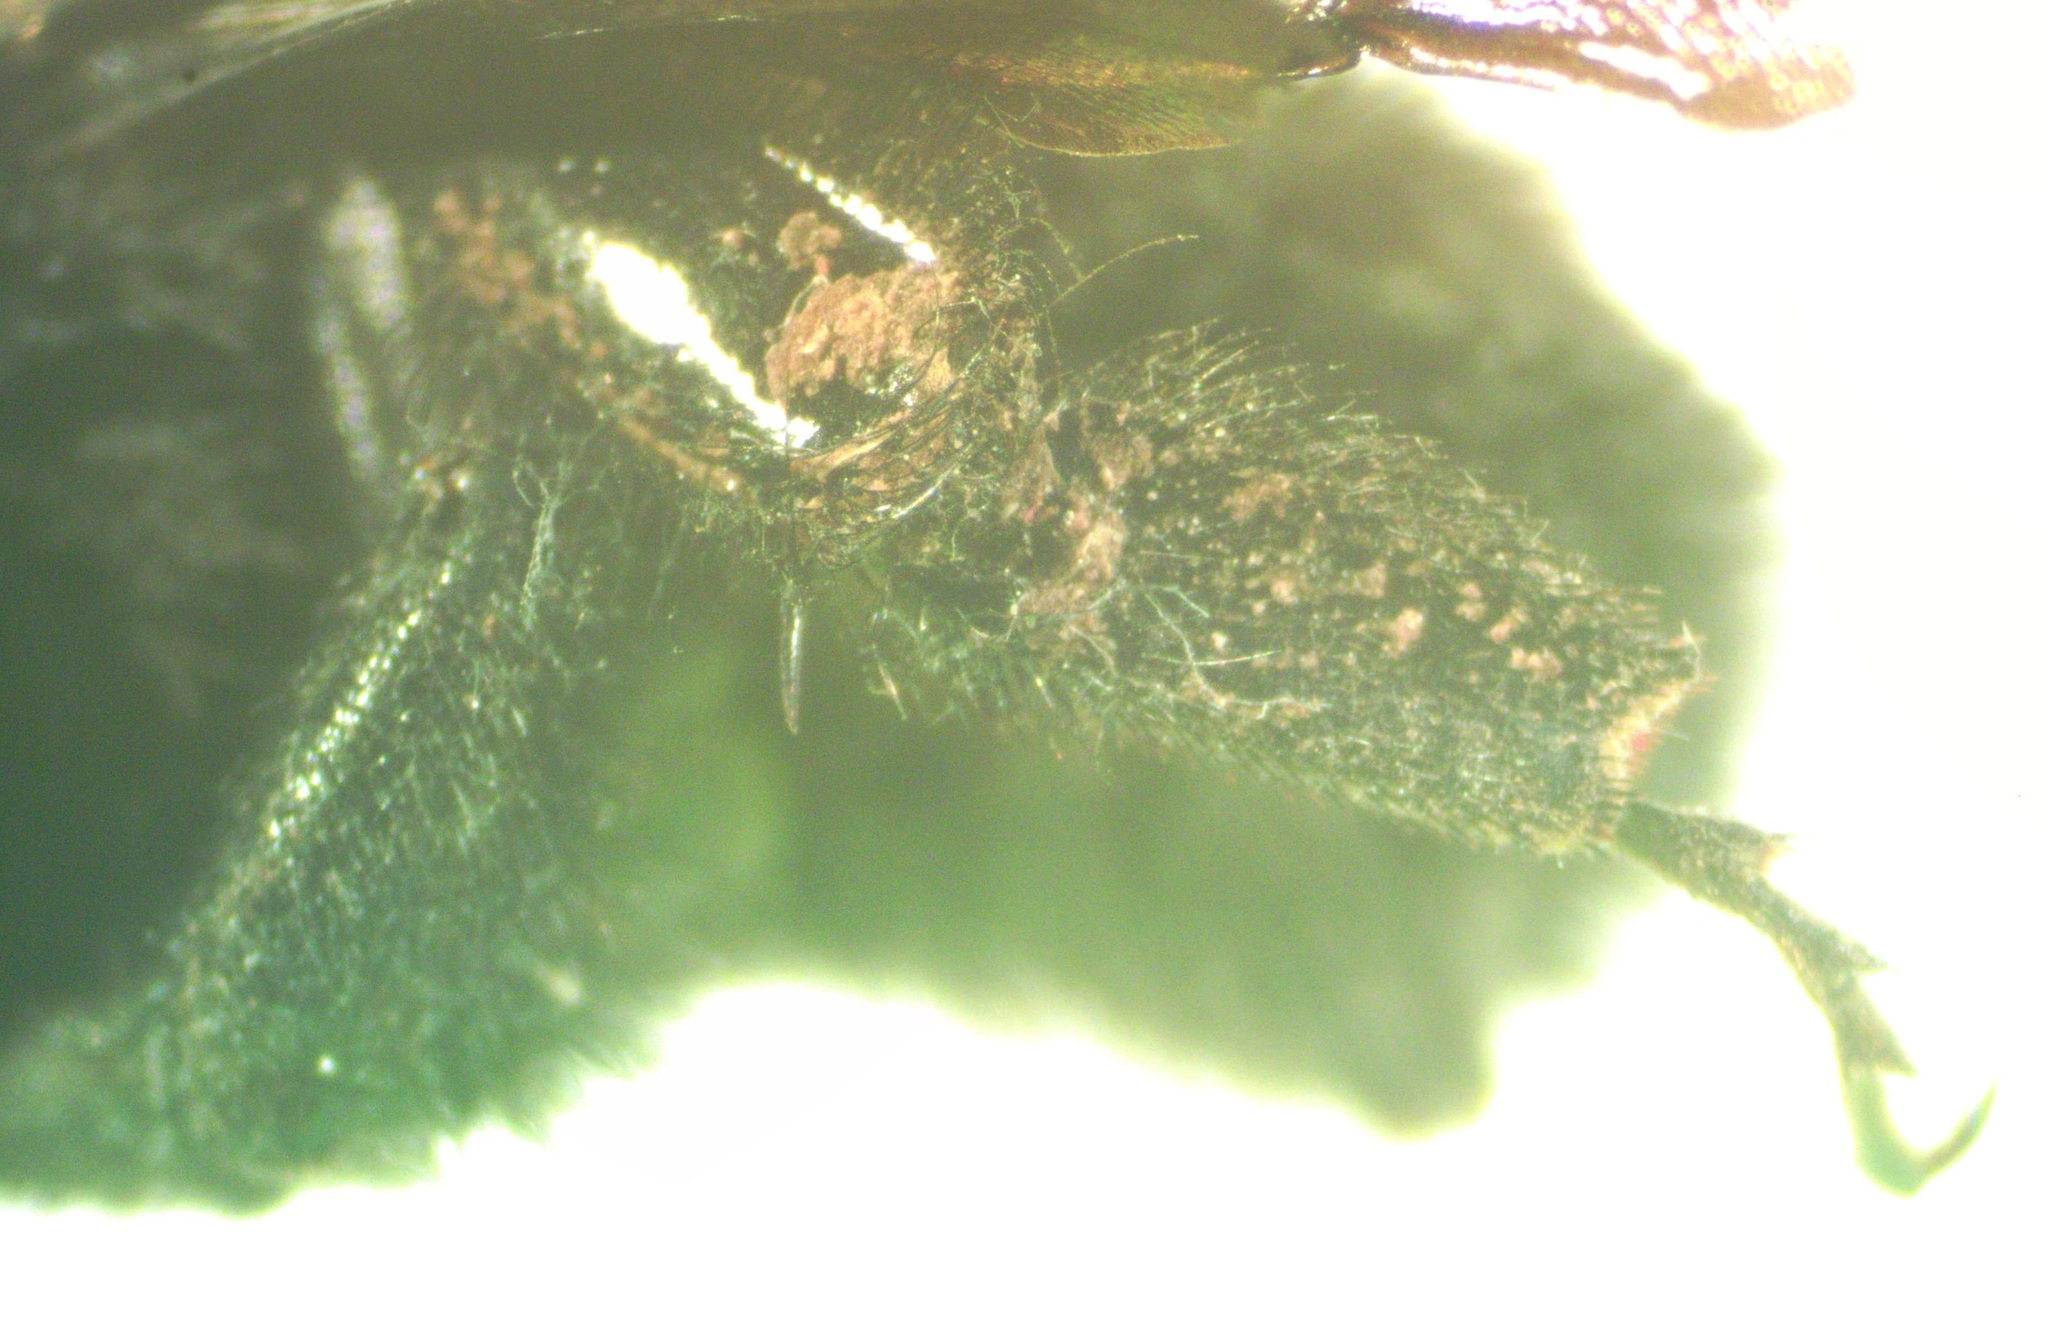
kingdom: Animalia
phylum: Arthropoda
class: Insecta
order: Hymenoptera
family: Apidae
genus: Bombus
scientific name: Bombus pullatus
